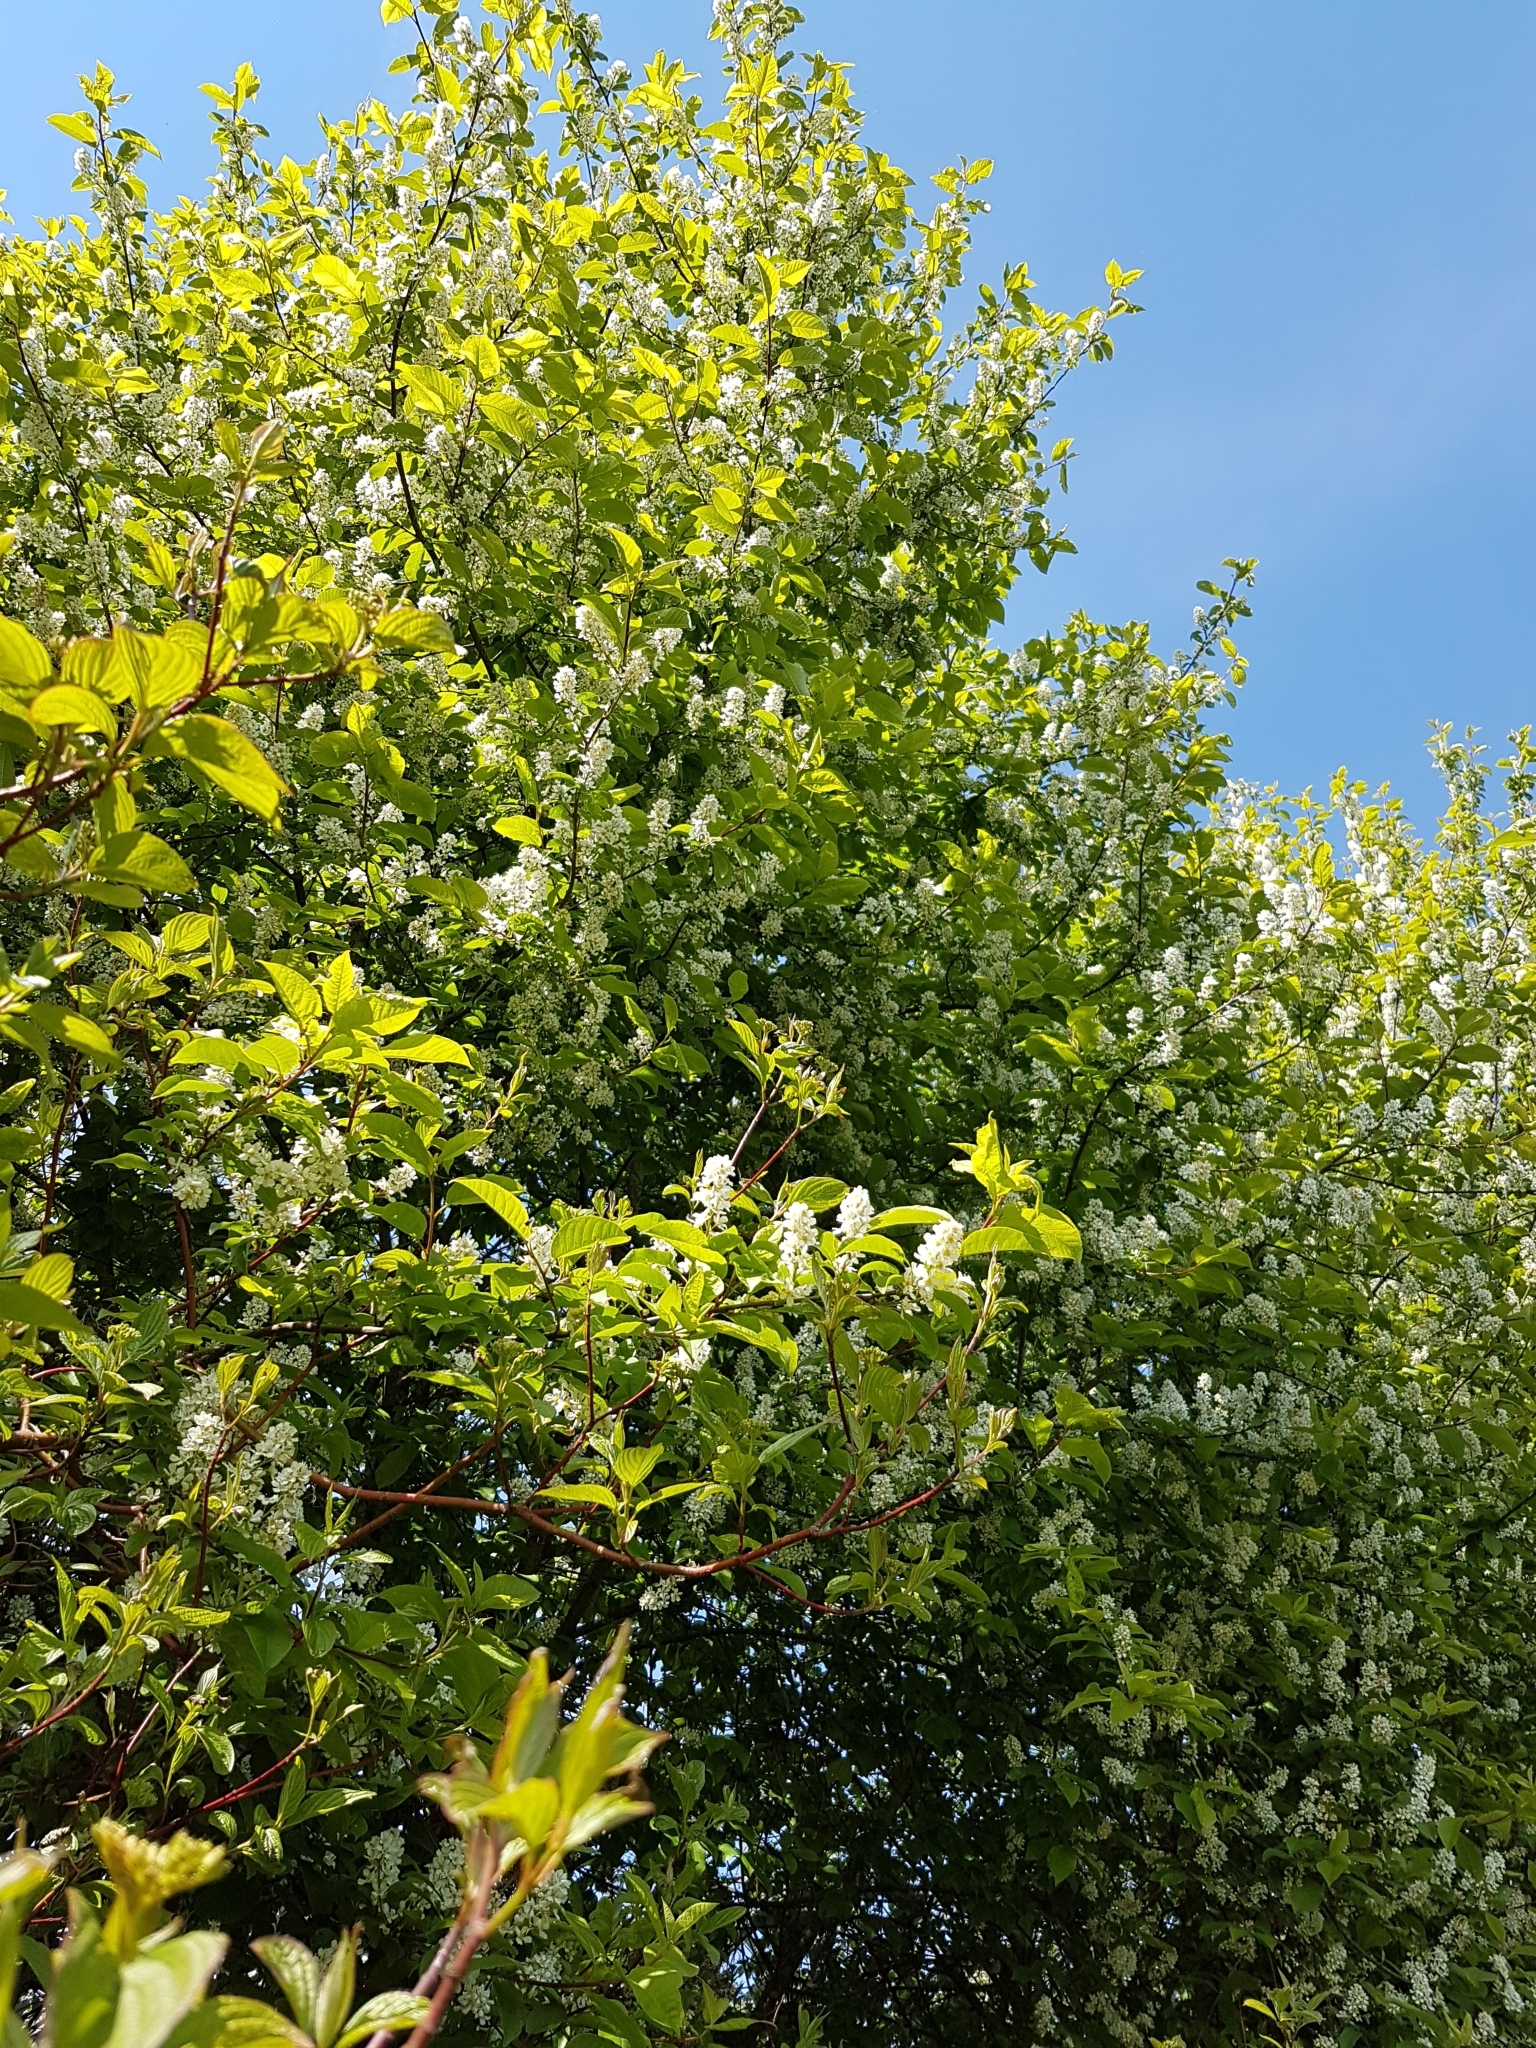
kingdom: Plantae
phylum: Tracheophyta
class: Magnoliopsida
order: Rosales
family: Rosaceae
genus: Prunus
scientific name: Prunus padus
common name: Bird cherry
